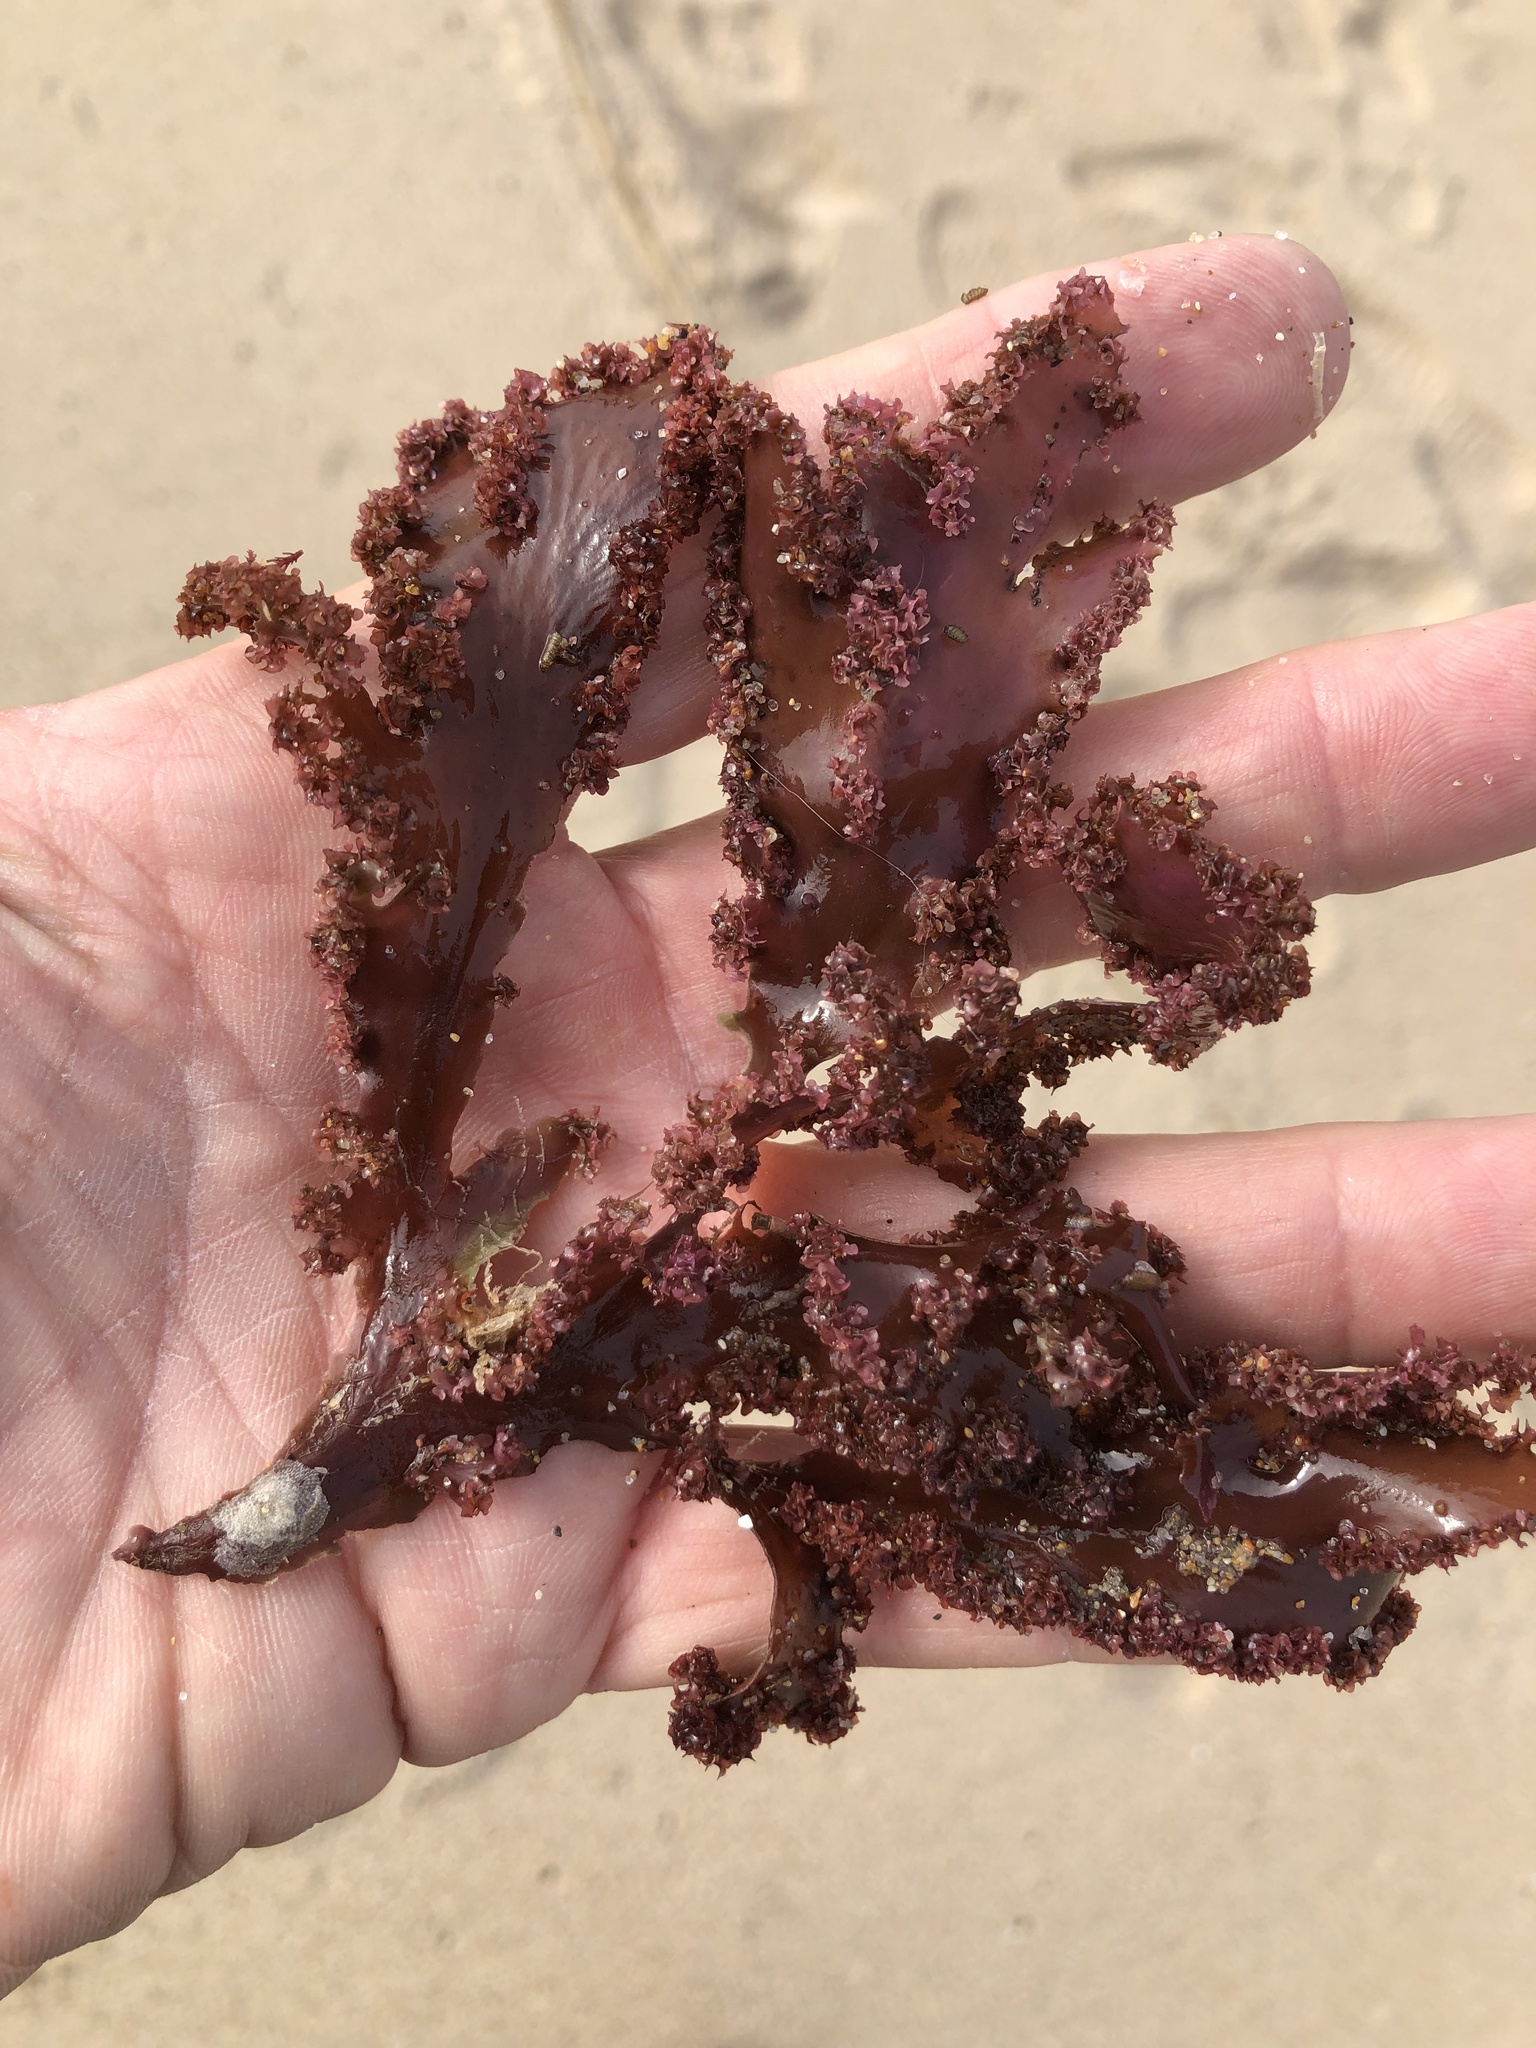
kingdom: Plantae
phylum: Rhodophyta
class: Florideophyceae
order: Ceramiales
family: Delesseriaceae
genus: Cryptopleura
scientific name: Cryptopleura ruprechtiana
